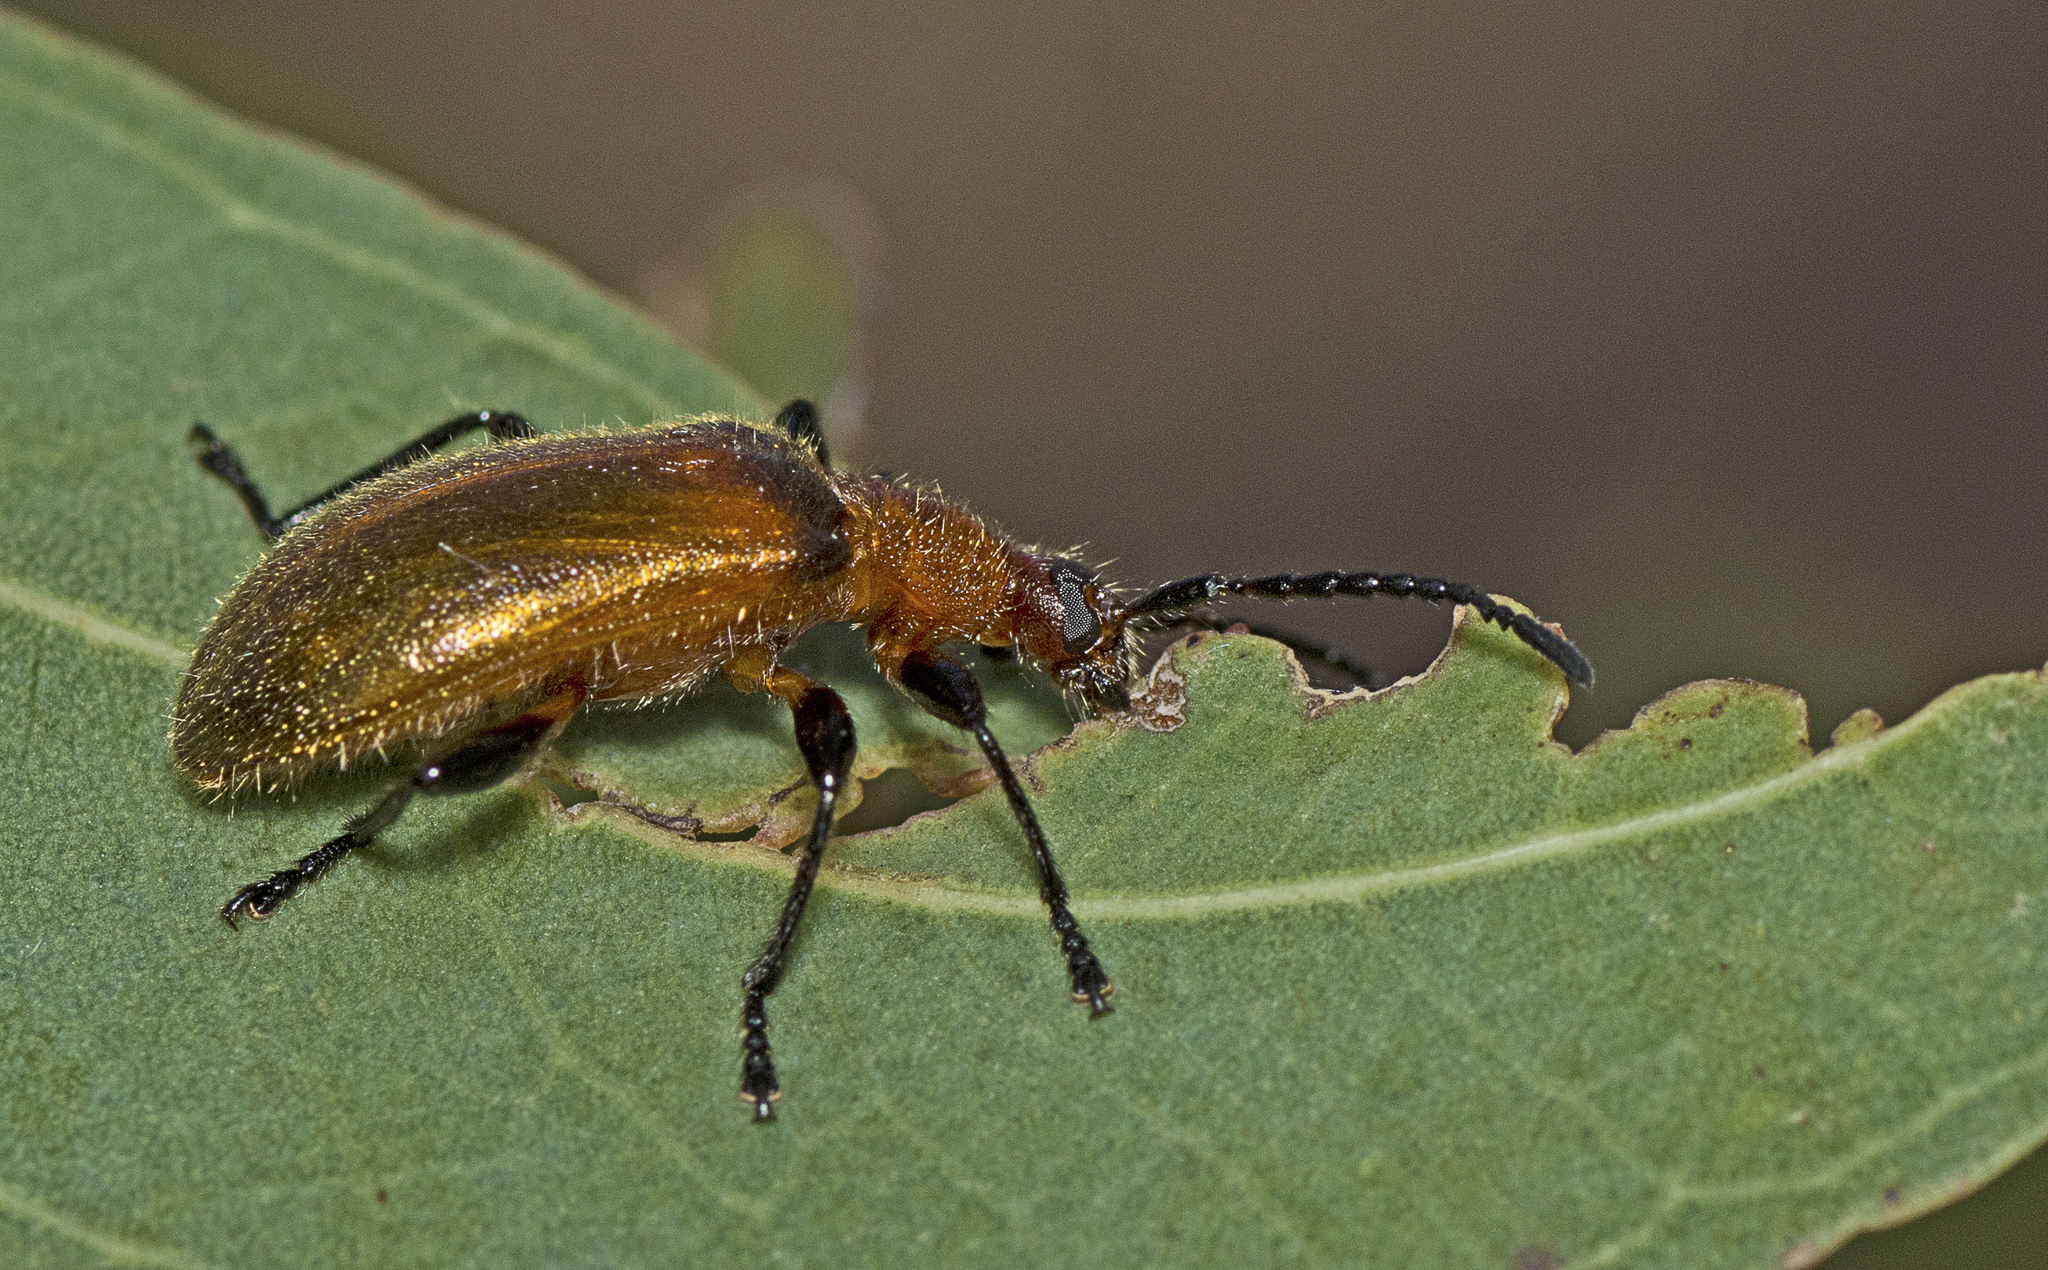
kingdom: Animalia
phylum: Arthropoda
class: Insecta
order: Coleoptera
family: Tenebrionidae
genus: Ecnolagria
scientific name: Ecnolagria
